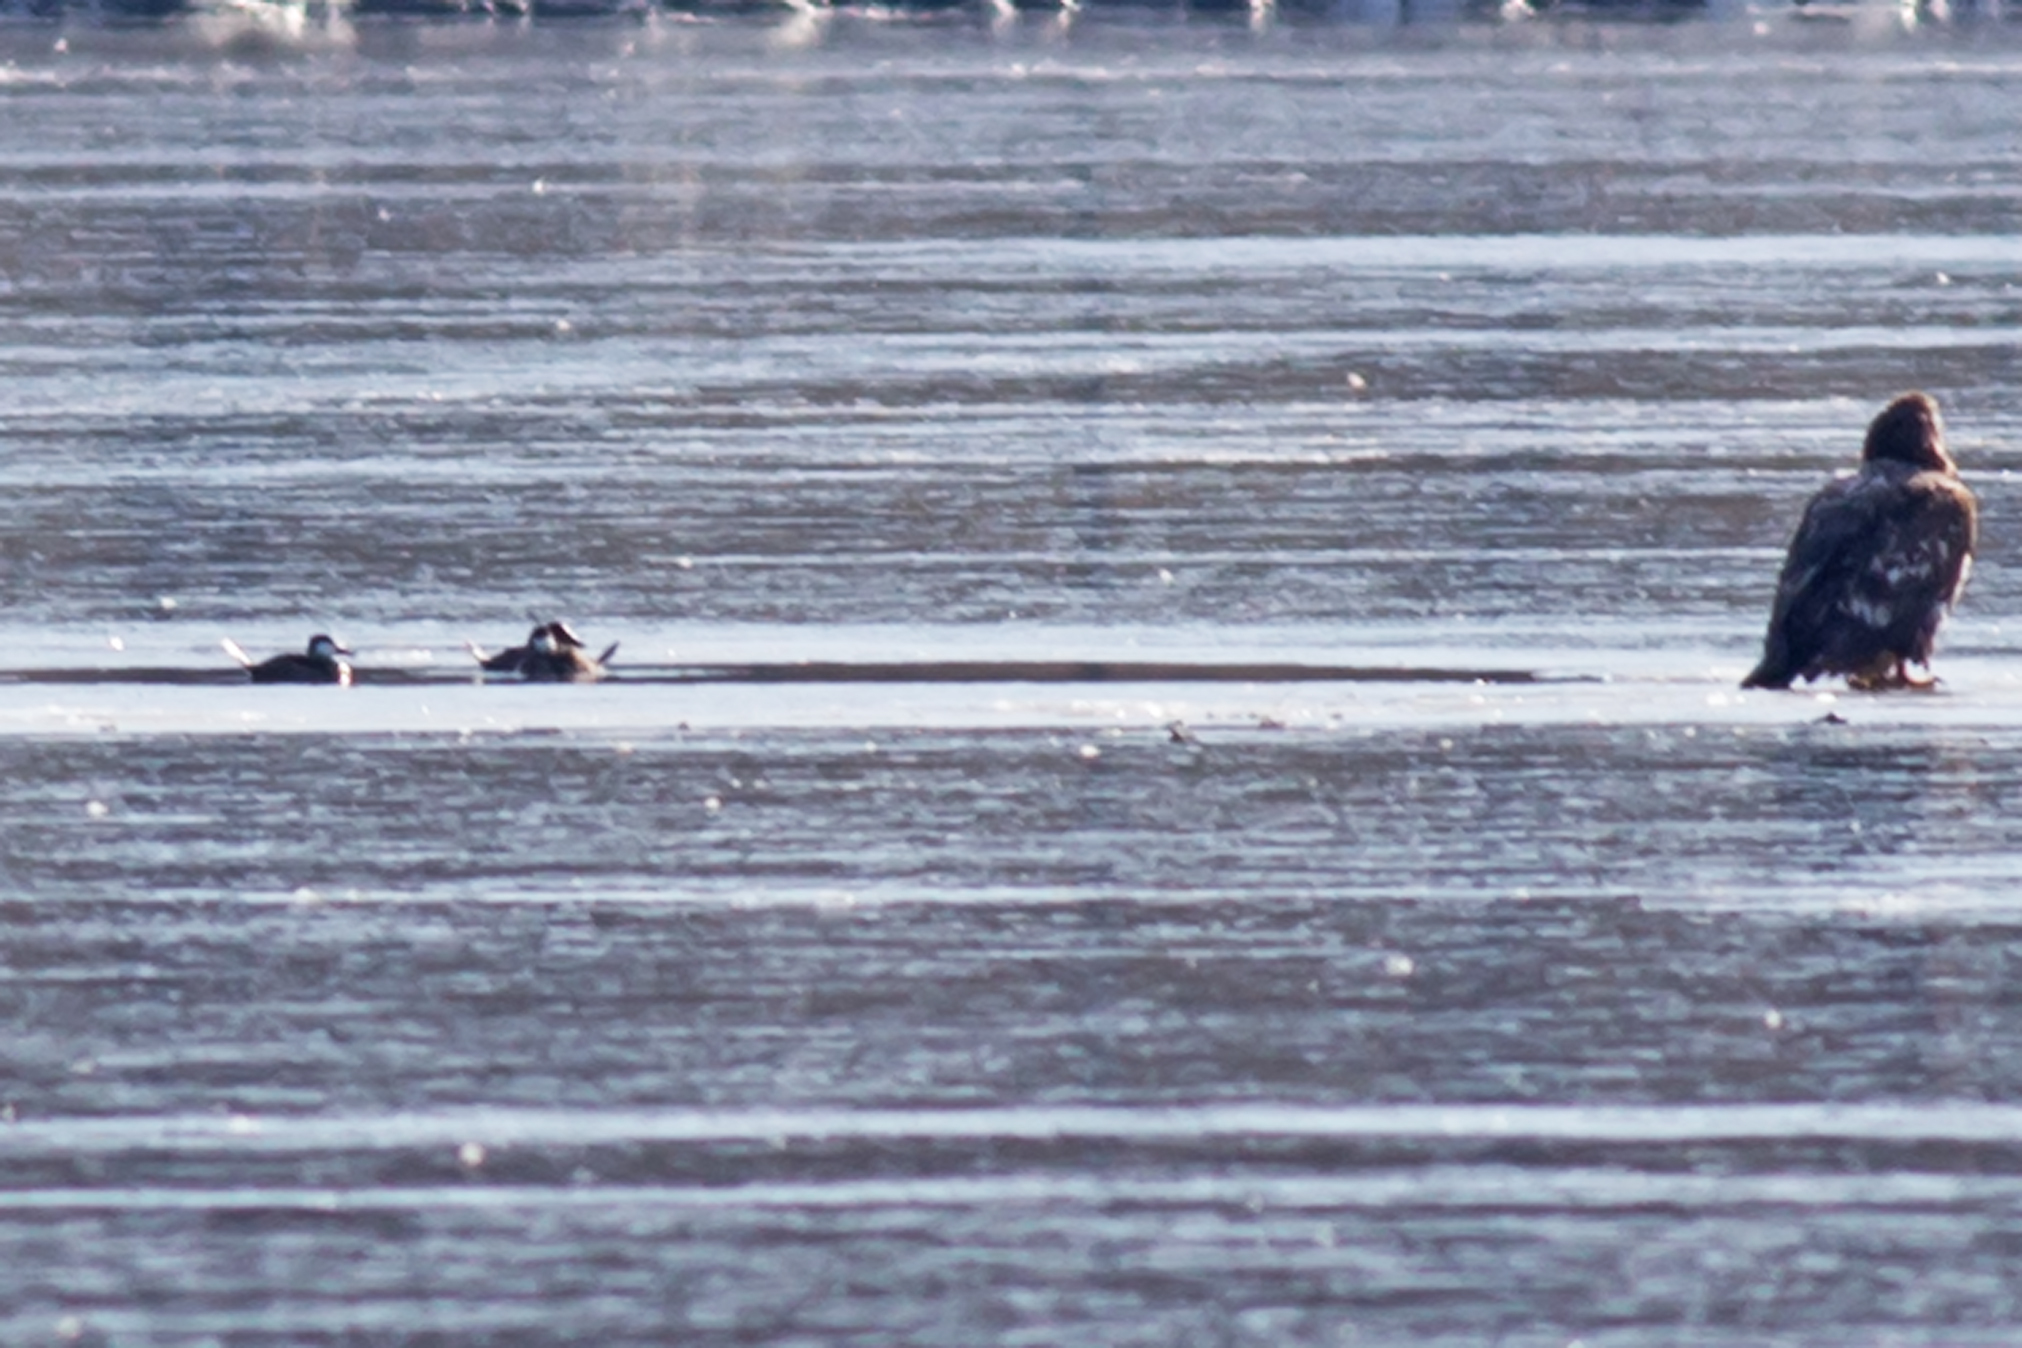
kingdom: Animalia
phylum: Chordata
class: Aves
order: Anseriformes
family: Anatidae
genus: Oxyura
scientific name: Oxyura jamaicensis
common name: Ruddy duck
